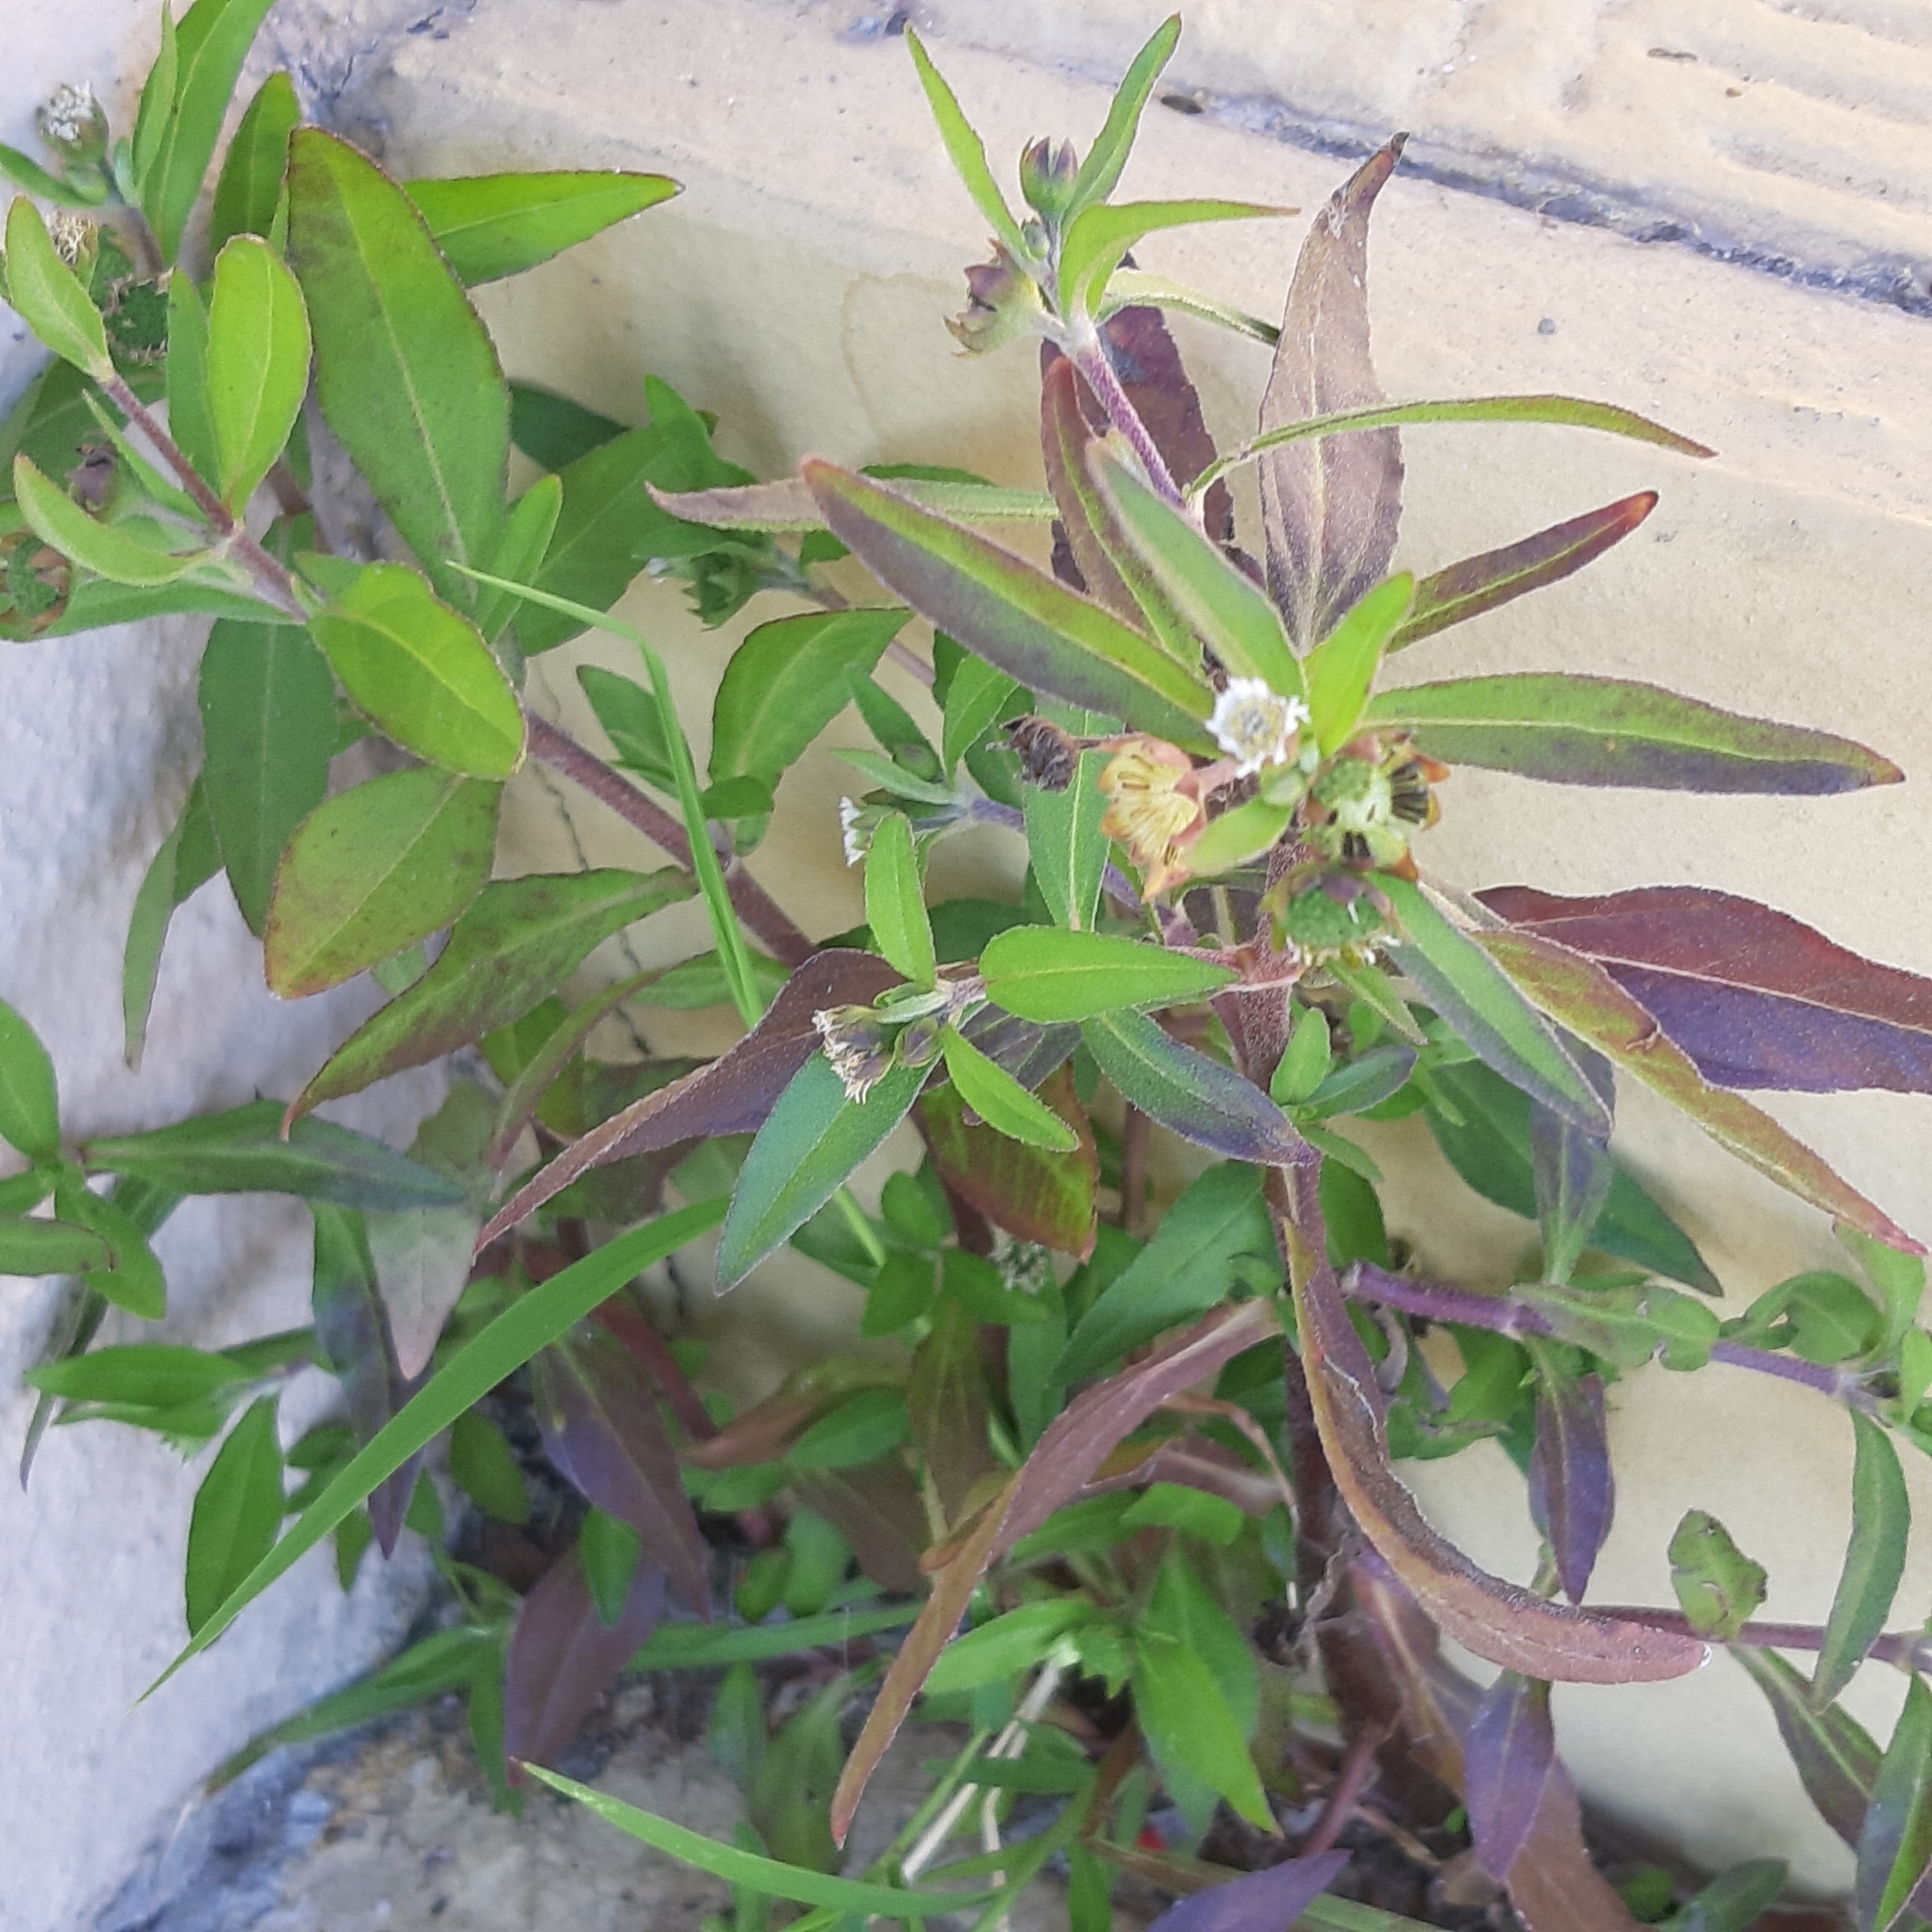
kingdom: Plantae
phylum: Tracheophyta
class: Magnoliopsida
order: Asterales
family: Asteraceae
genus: Eclipta
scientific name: Eclipta prostrata
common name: False daisy
